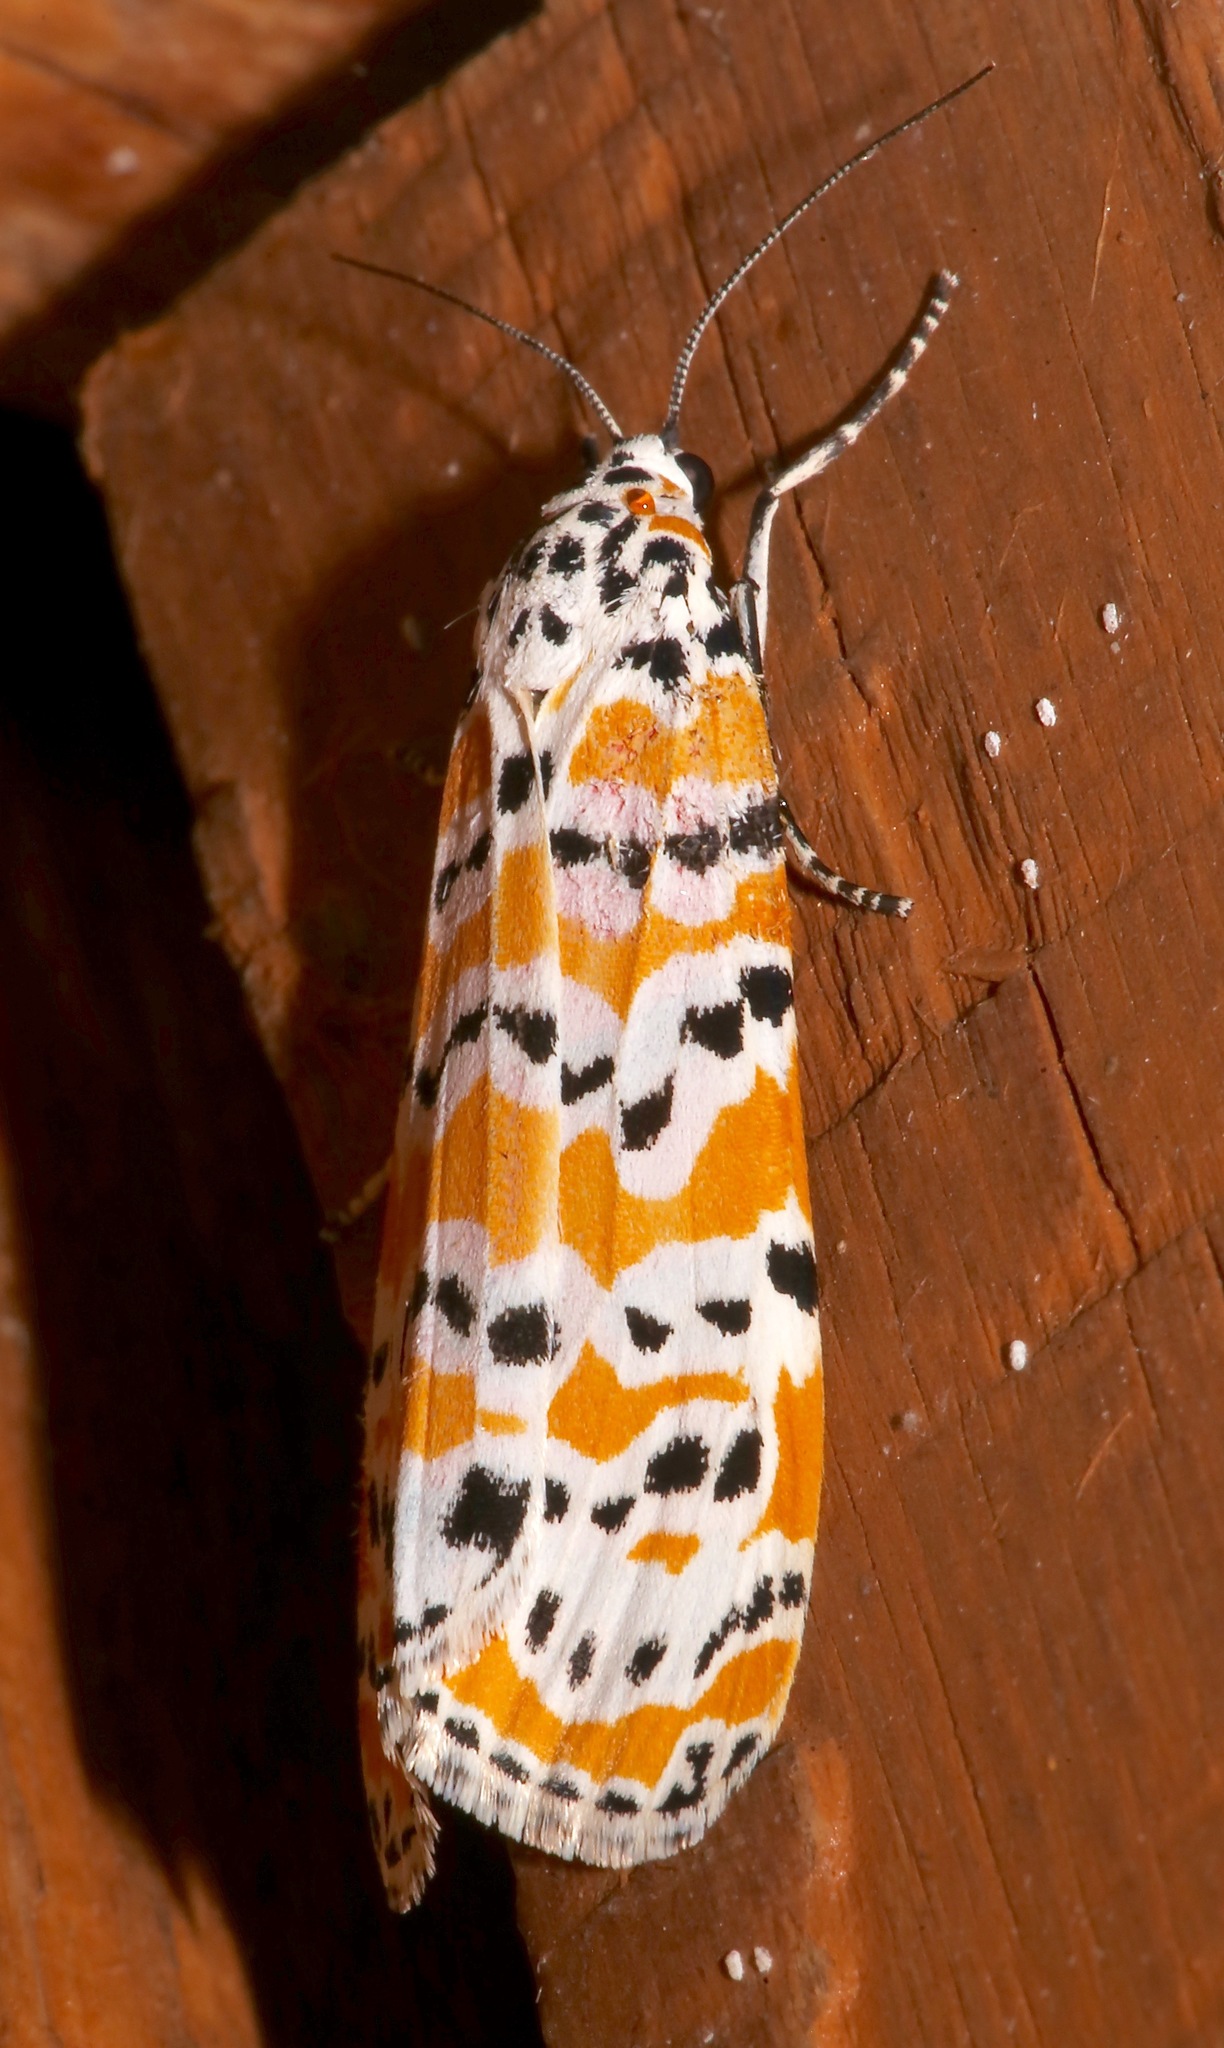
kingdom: Animalia
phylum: Arthropoda
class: Insecta
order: Lepidoptera
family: Erebidae
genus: Utetheisa
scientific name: Utetheisa ornatrix
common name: Beautiful utetheisa
